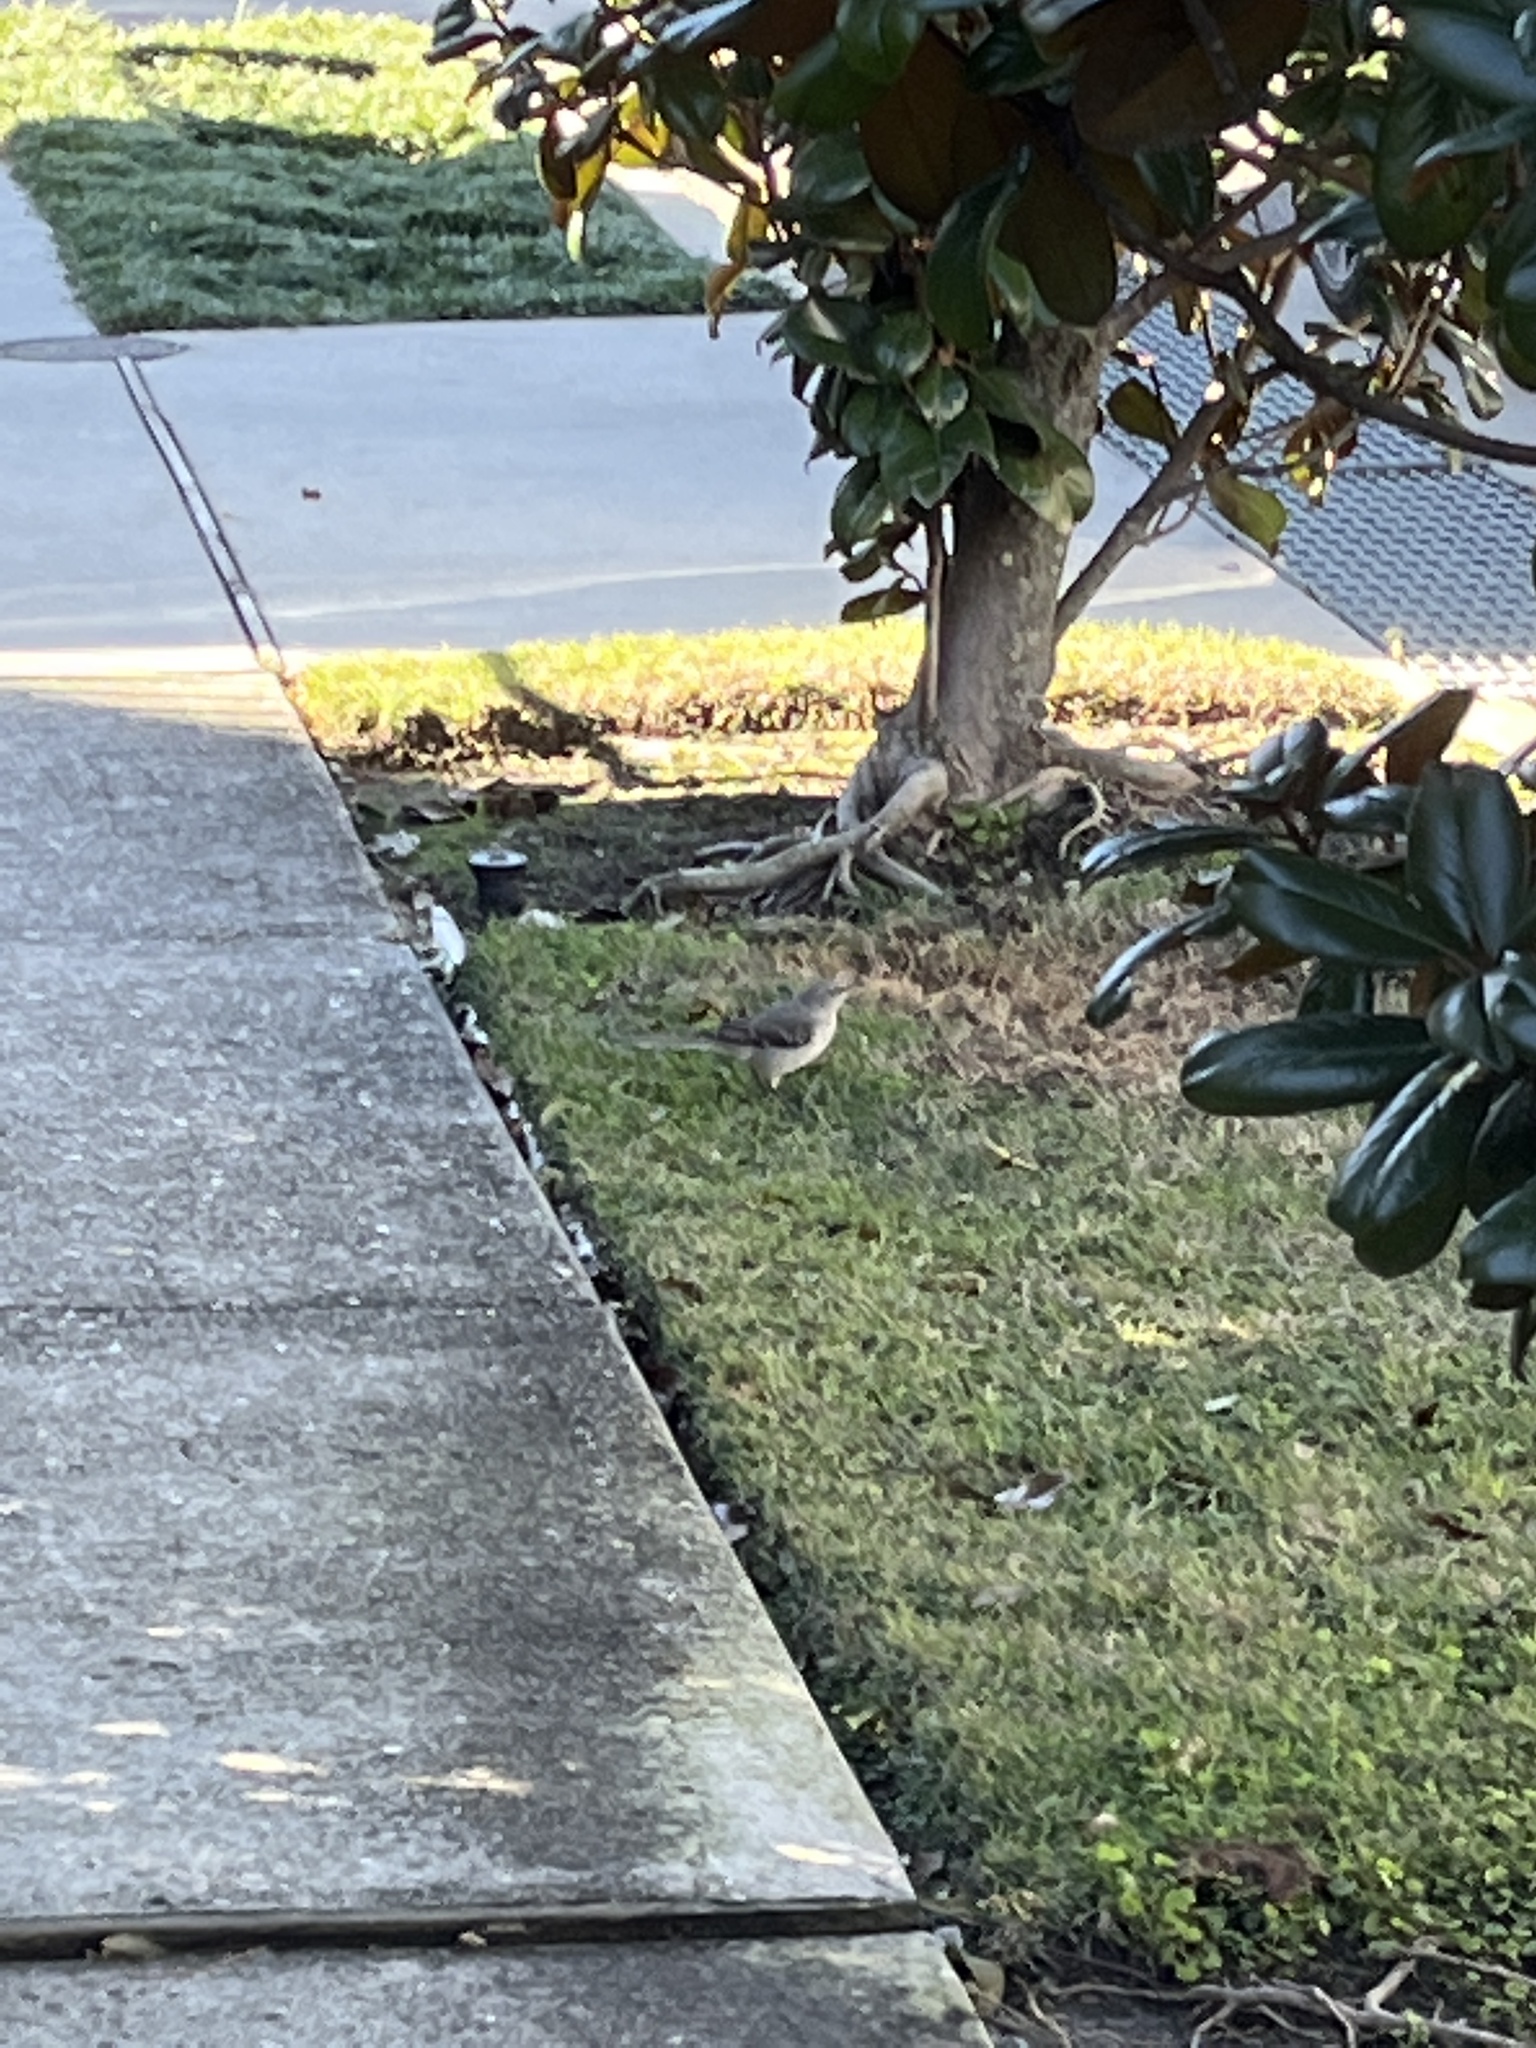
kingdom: Animalia
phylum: Chordata
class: Aves
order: Passeriformes
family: Mimidae
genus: Mimus
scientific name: Mimus polyglottos
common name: Northern mockingbird
